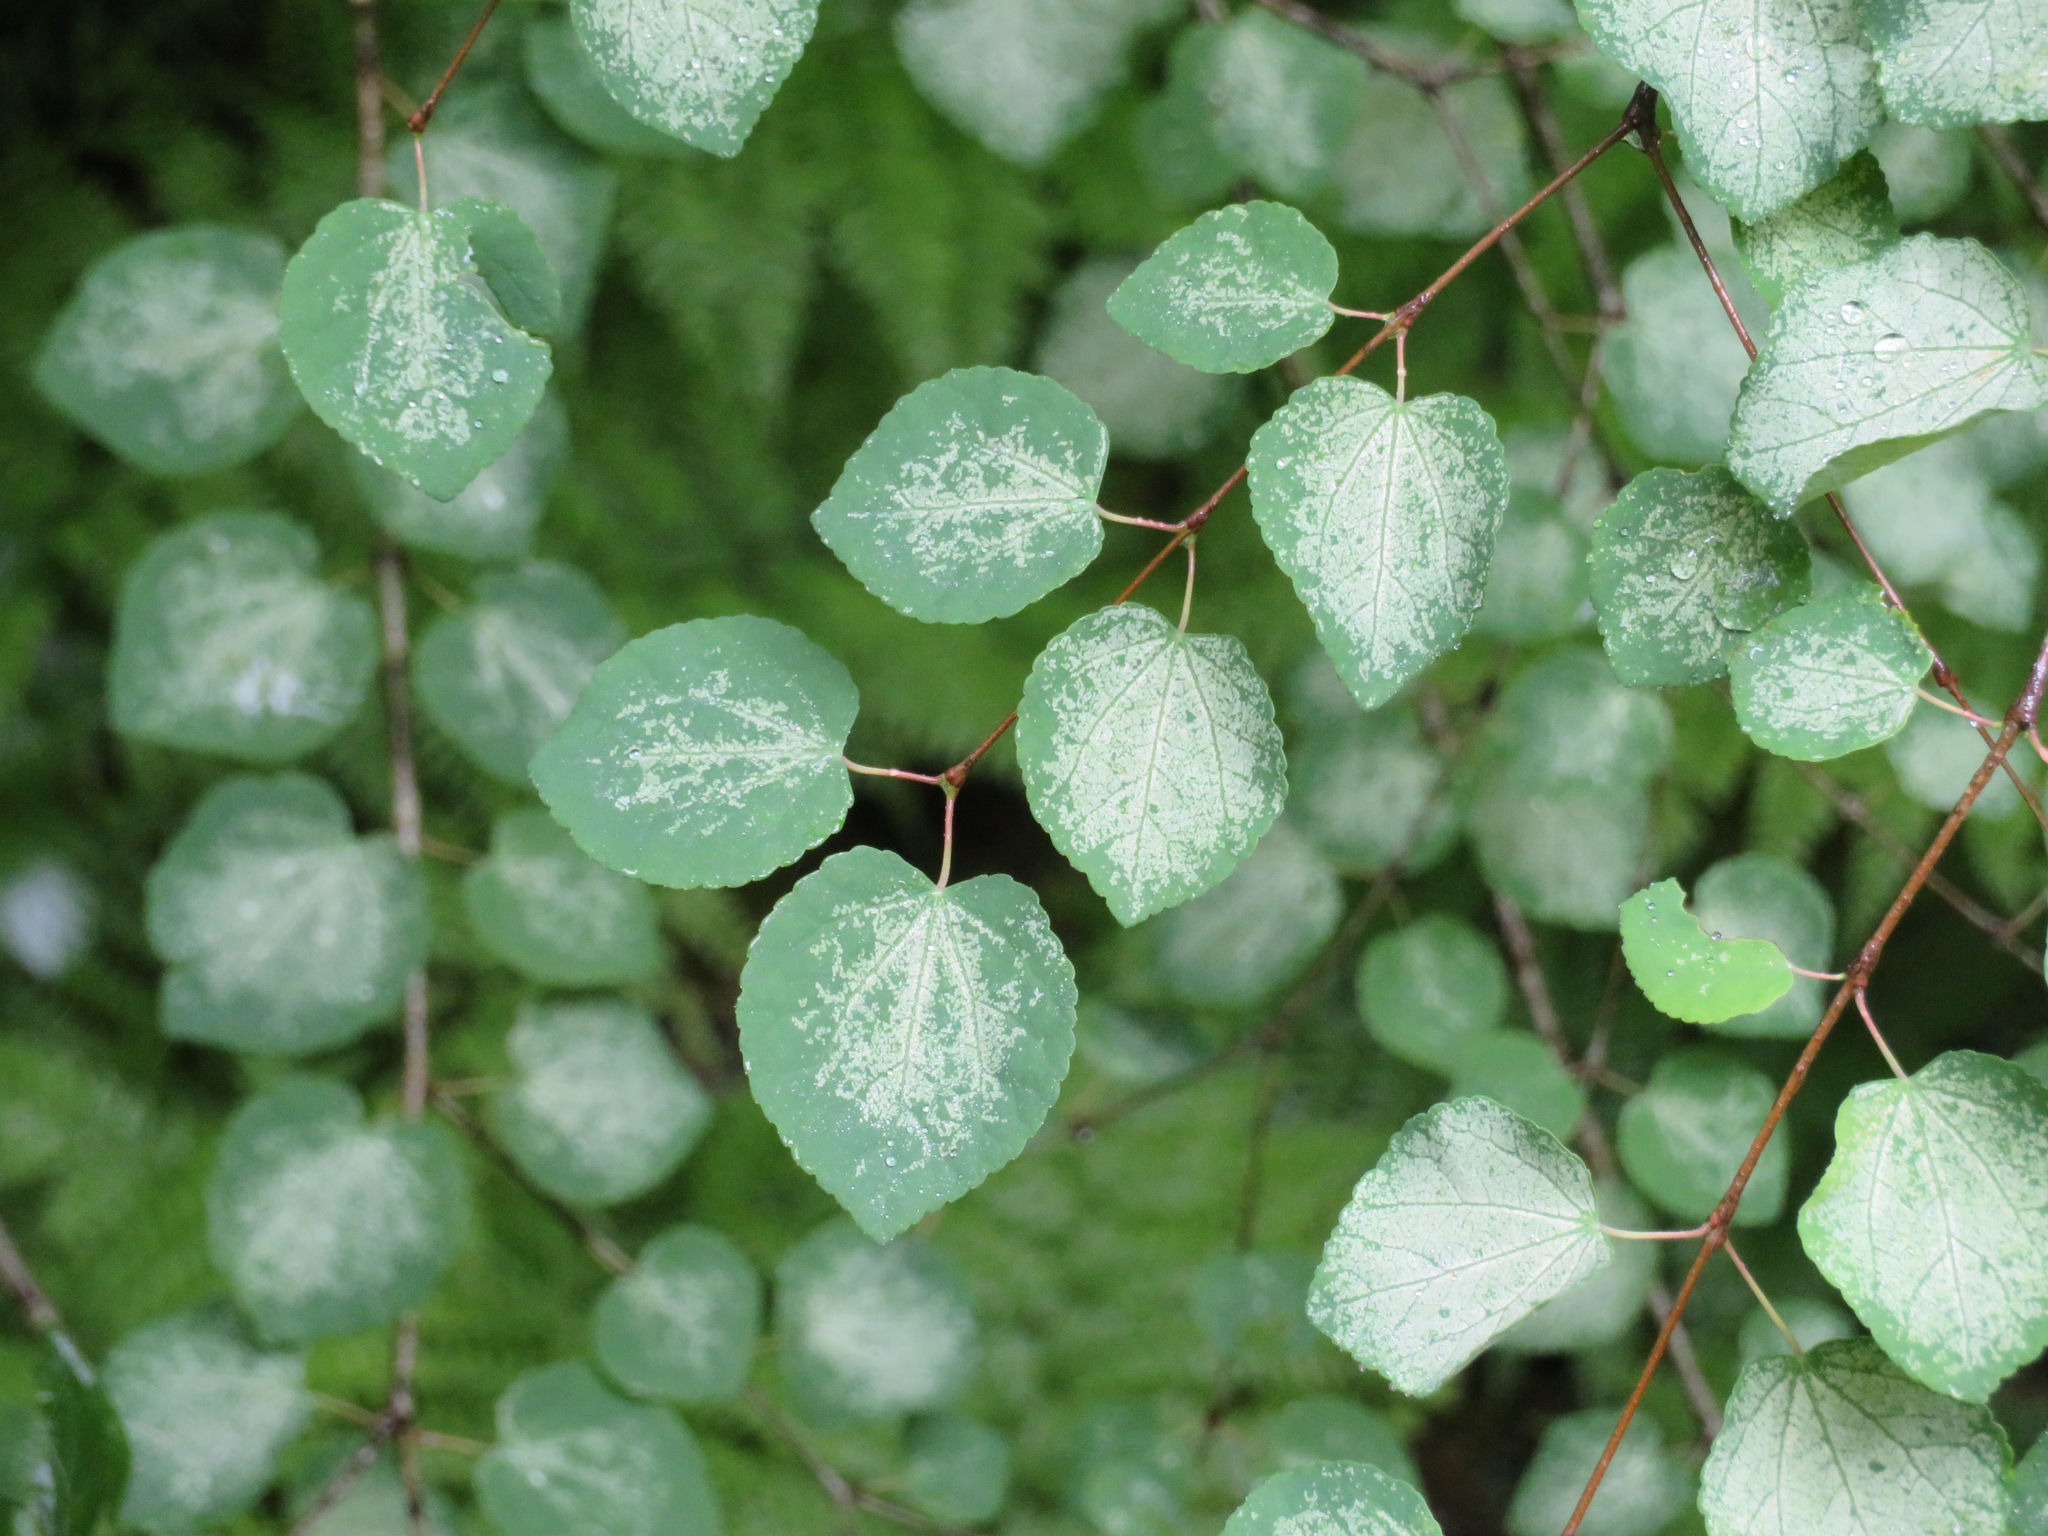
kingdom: Plantae
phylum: Tracheophyta
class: Magnoliopsida
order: Saxifragales
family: Cercidiphyllaceae
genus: Cercidiphyllum
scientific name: Cercidiphyllum japonicum
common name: Katsura tree
